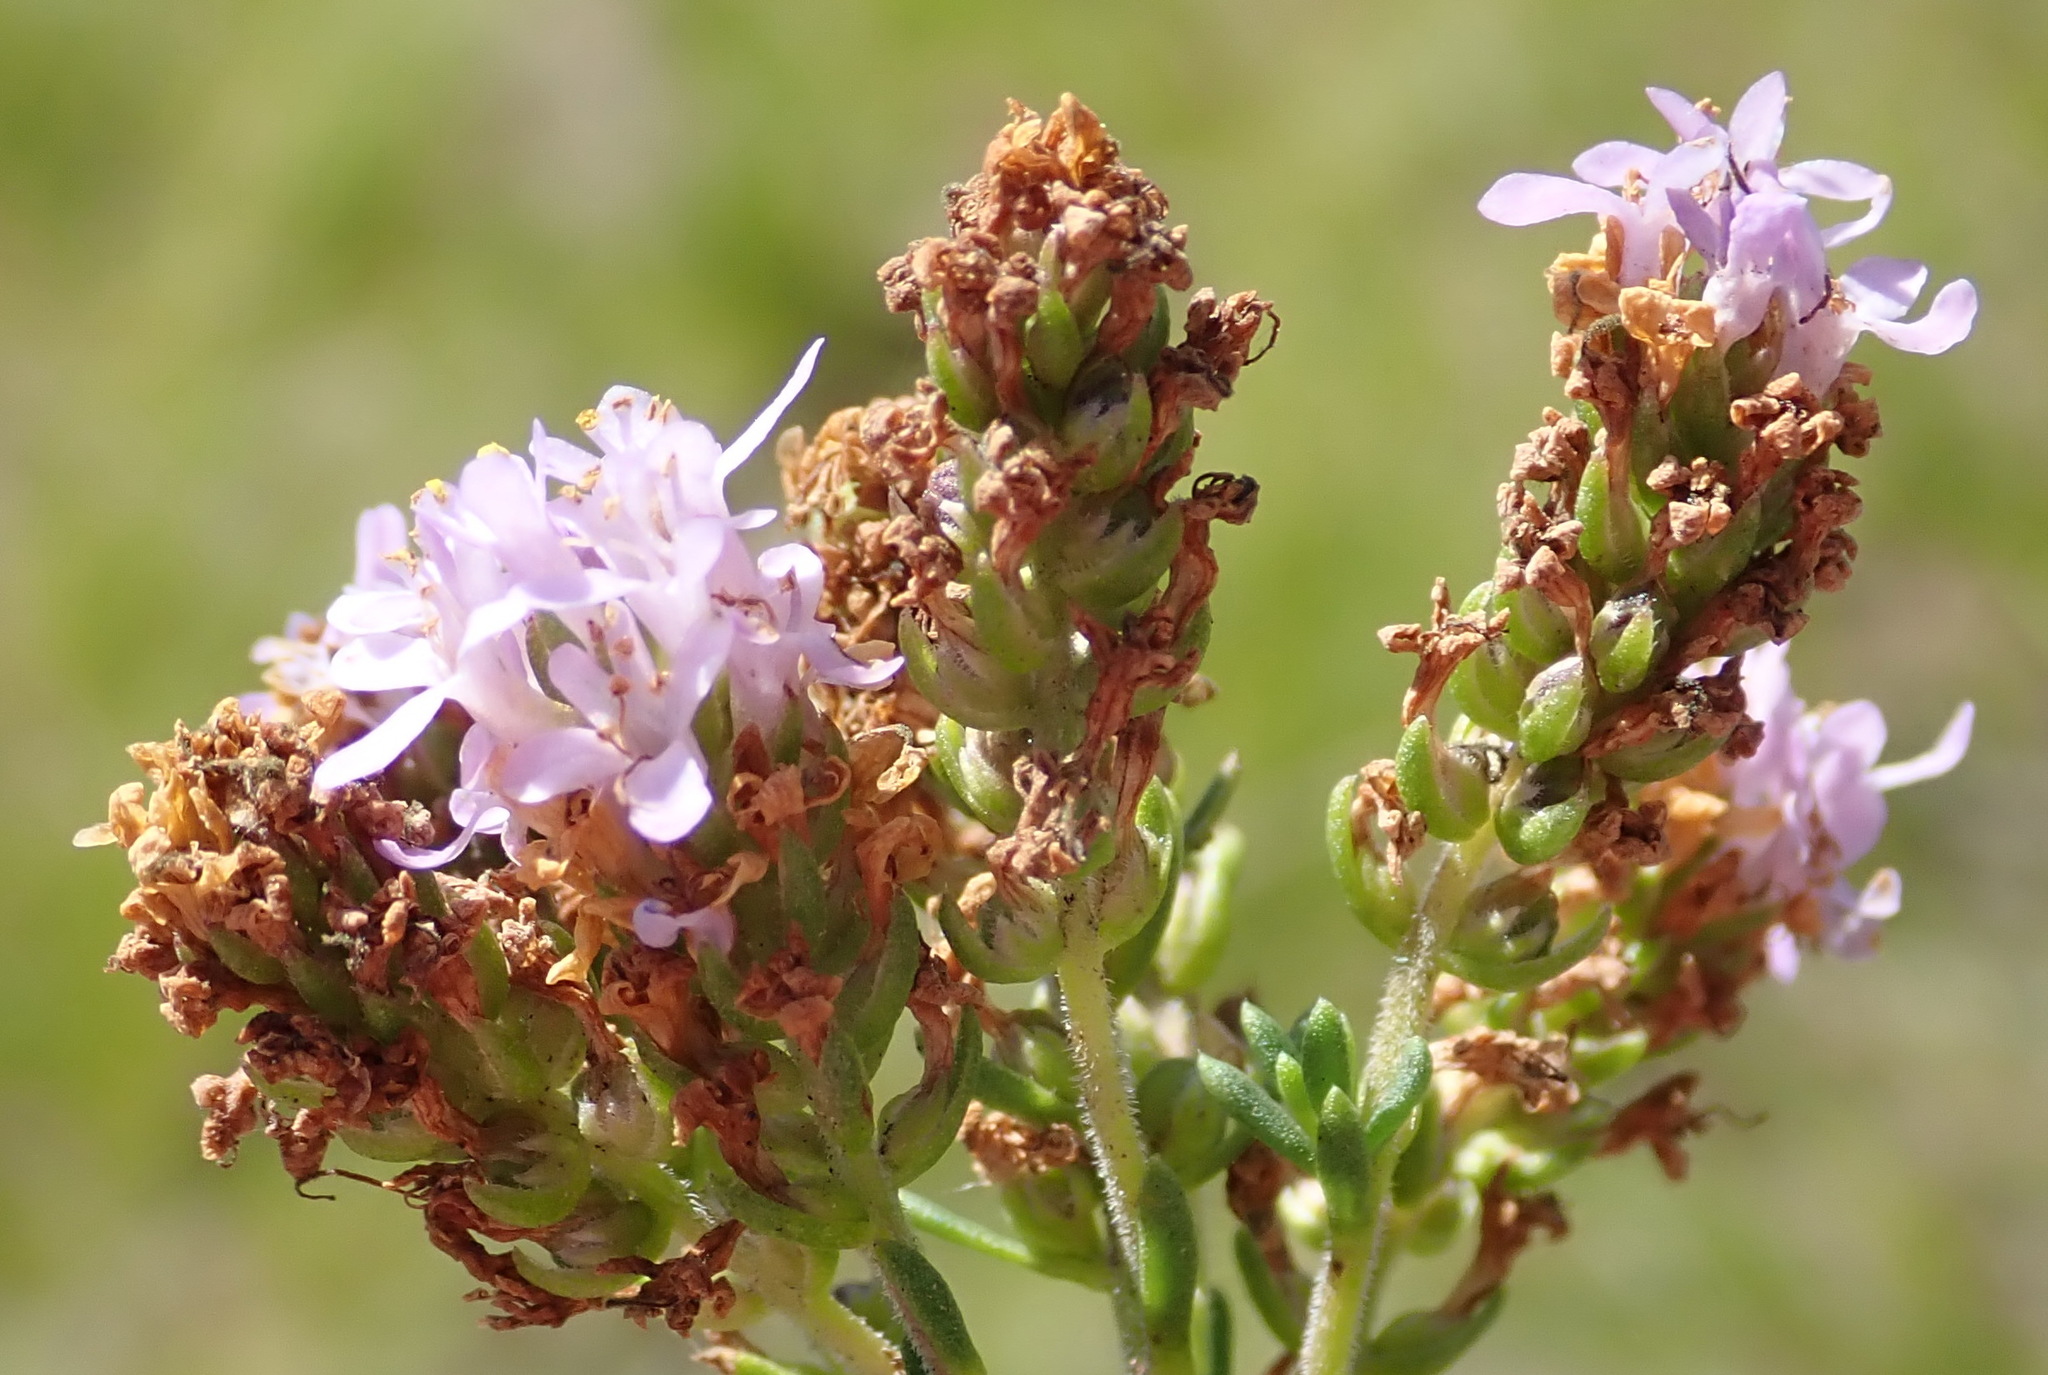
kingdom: Plantae
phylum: Tracheophyta
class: Magnoliopsida
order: Lamiales
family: Scrophulariaceae
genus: Selago
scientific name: Selago burchellii
